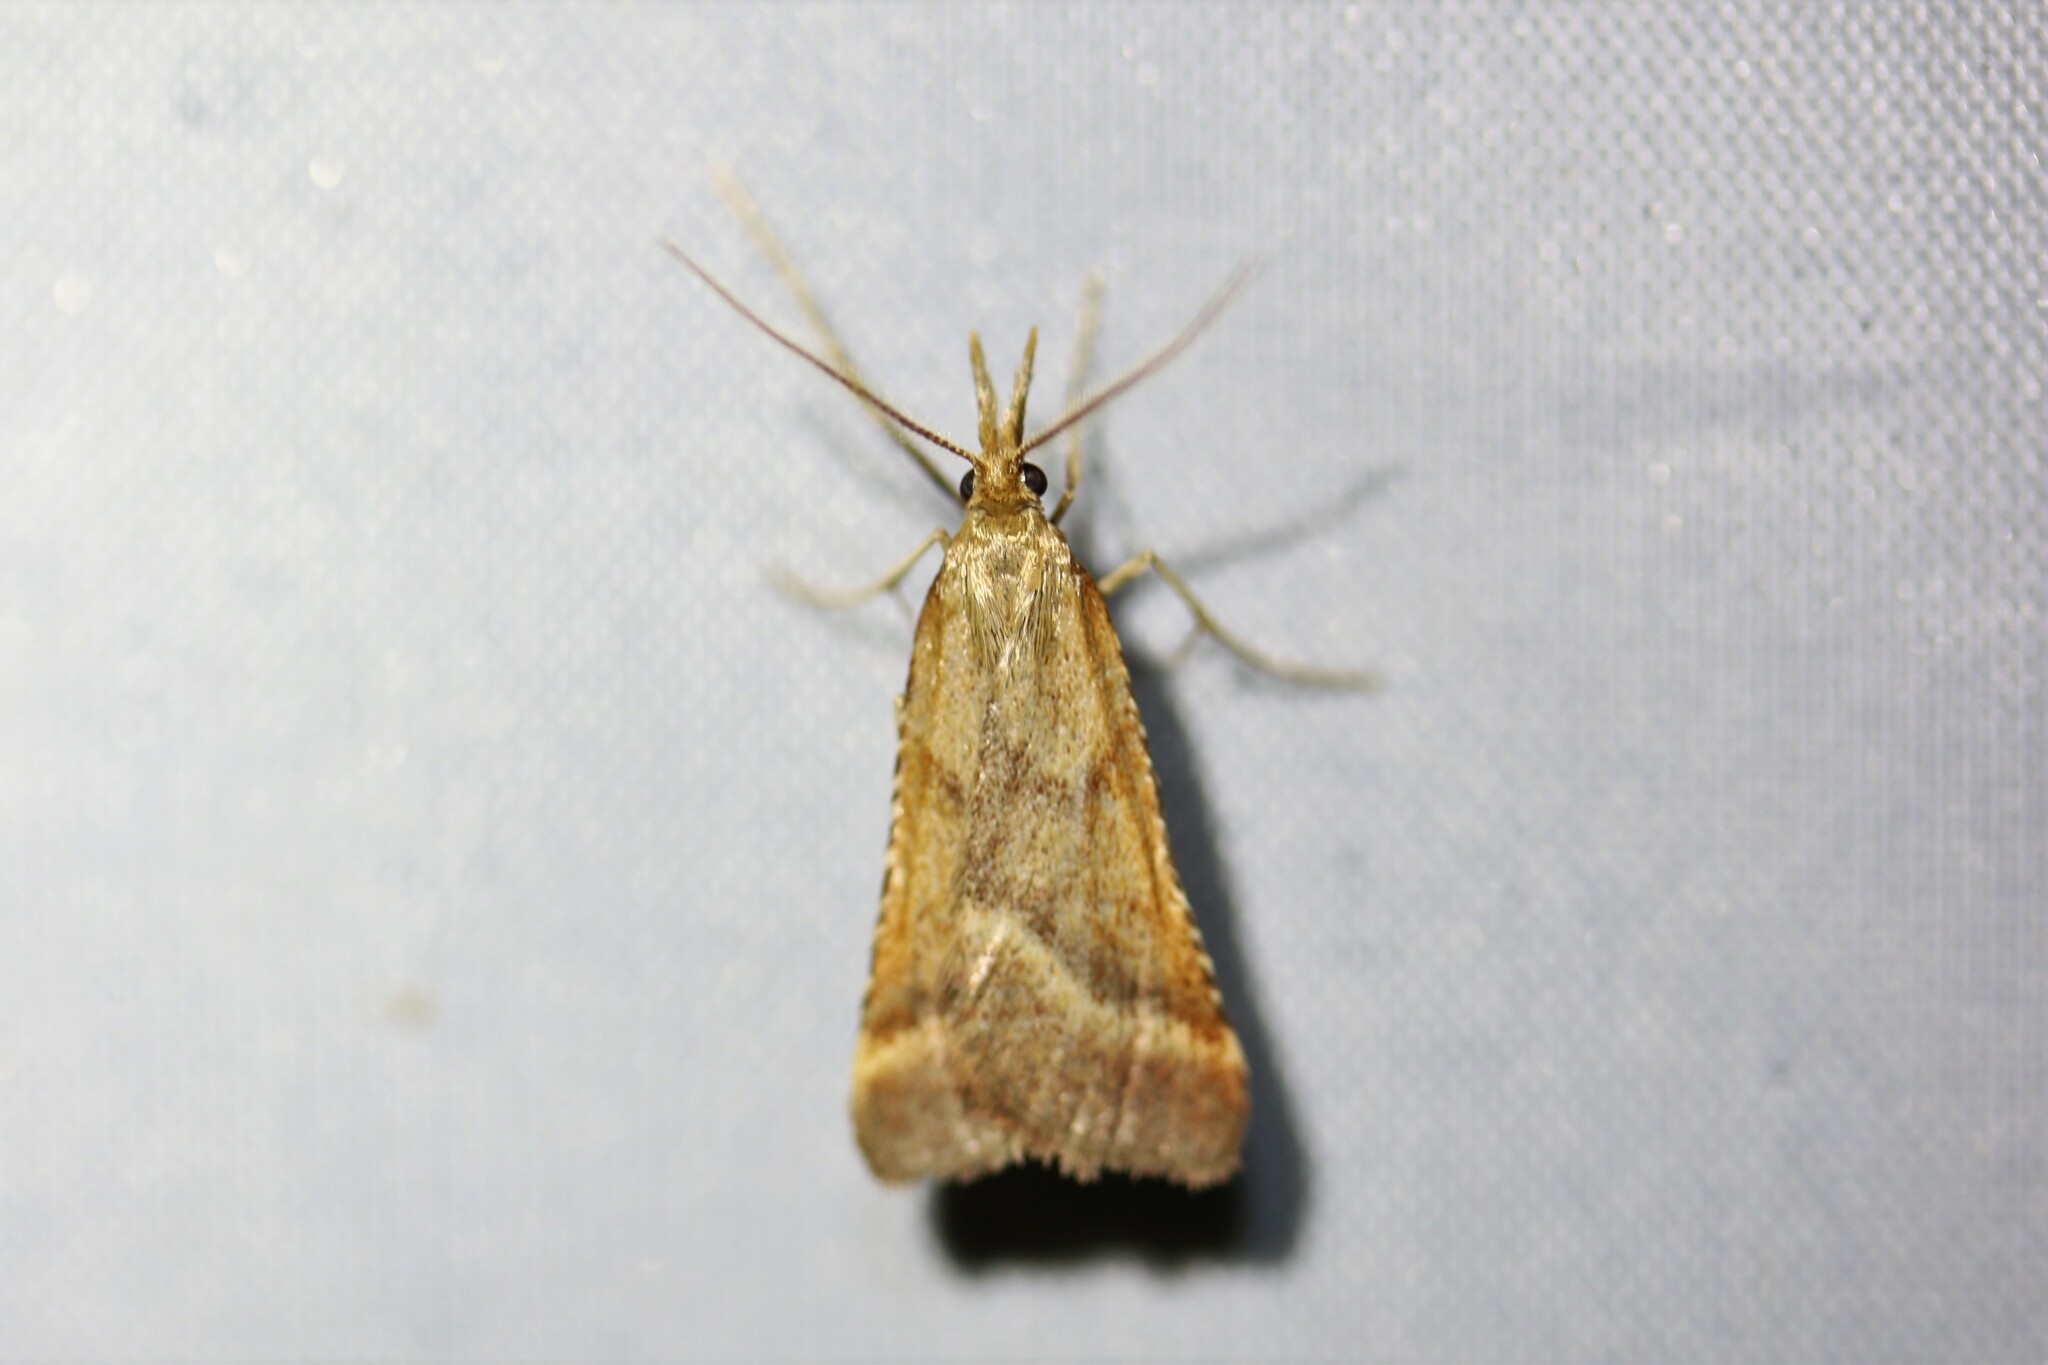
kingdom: Animalia
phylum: Arthropoda
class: Insecta
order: Lepidoptera
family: Pyralidae
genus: Synaphe
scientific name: Synaphe punctalis
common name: Long-legged tabby
